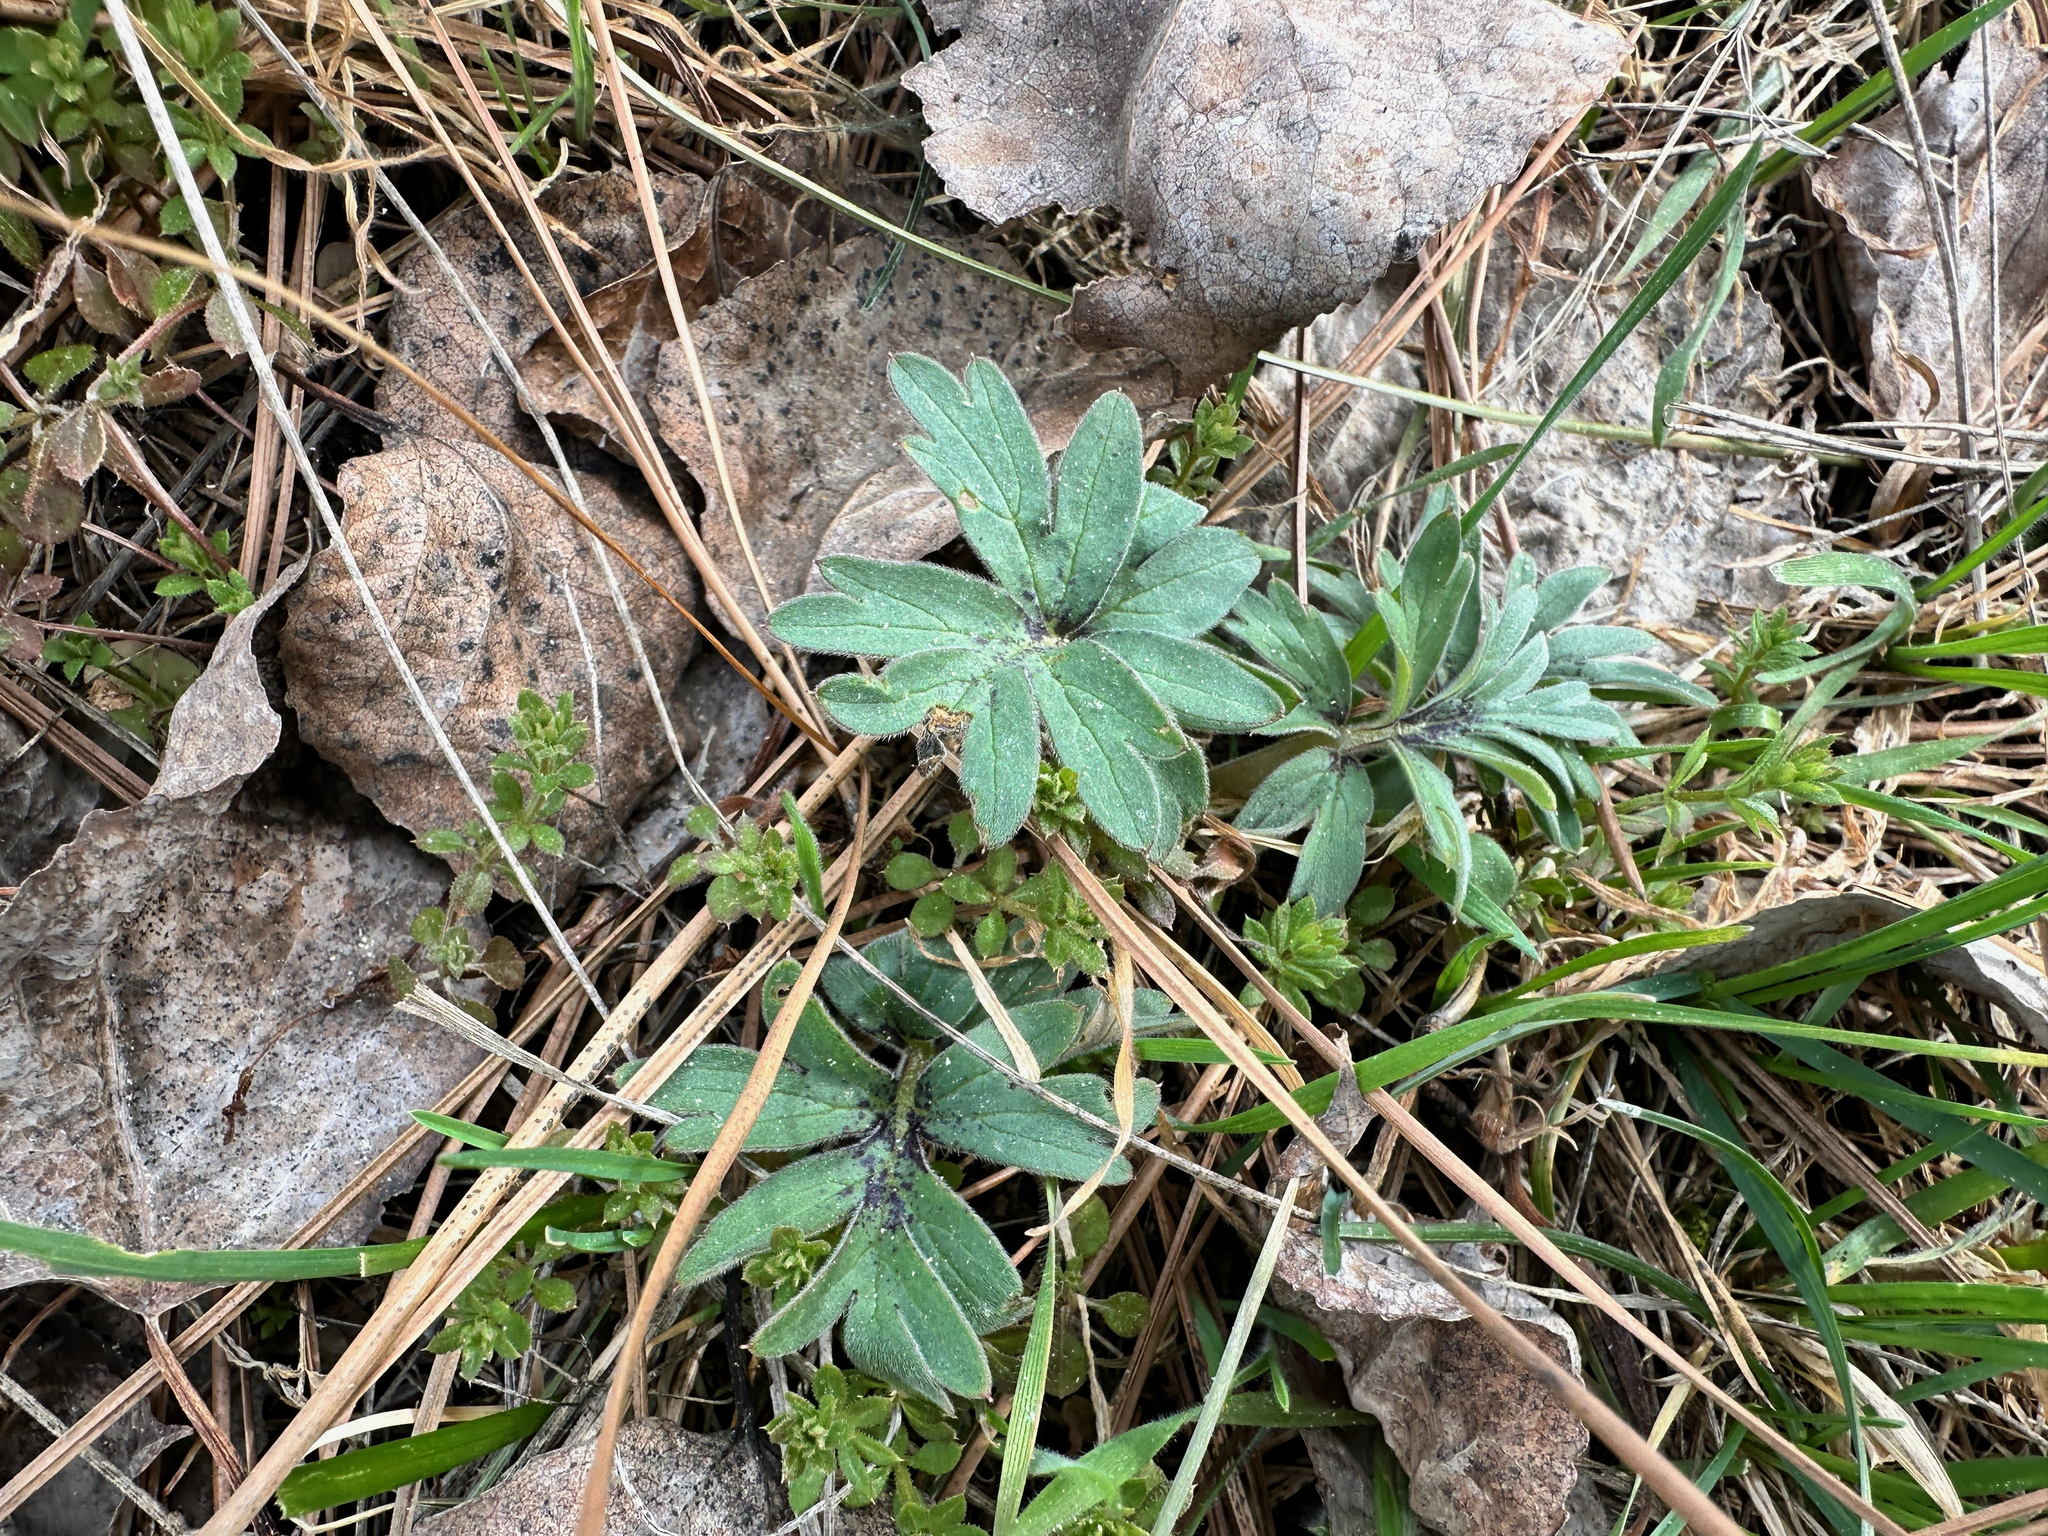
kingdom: Plantae
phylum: Tracheophyta
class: Magnoliopsida
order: Boraginales
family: Hydrophyllaceae
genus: Hydrophyllum
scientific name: Hydrophyllum capitatum
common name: Woollen-breeches
